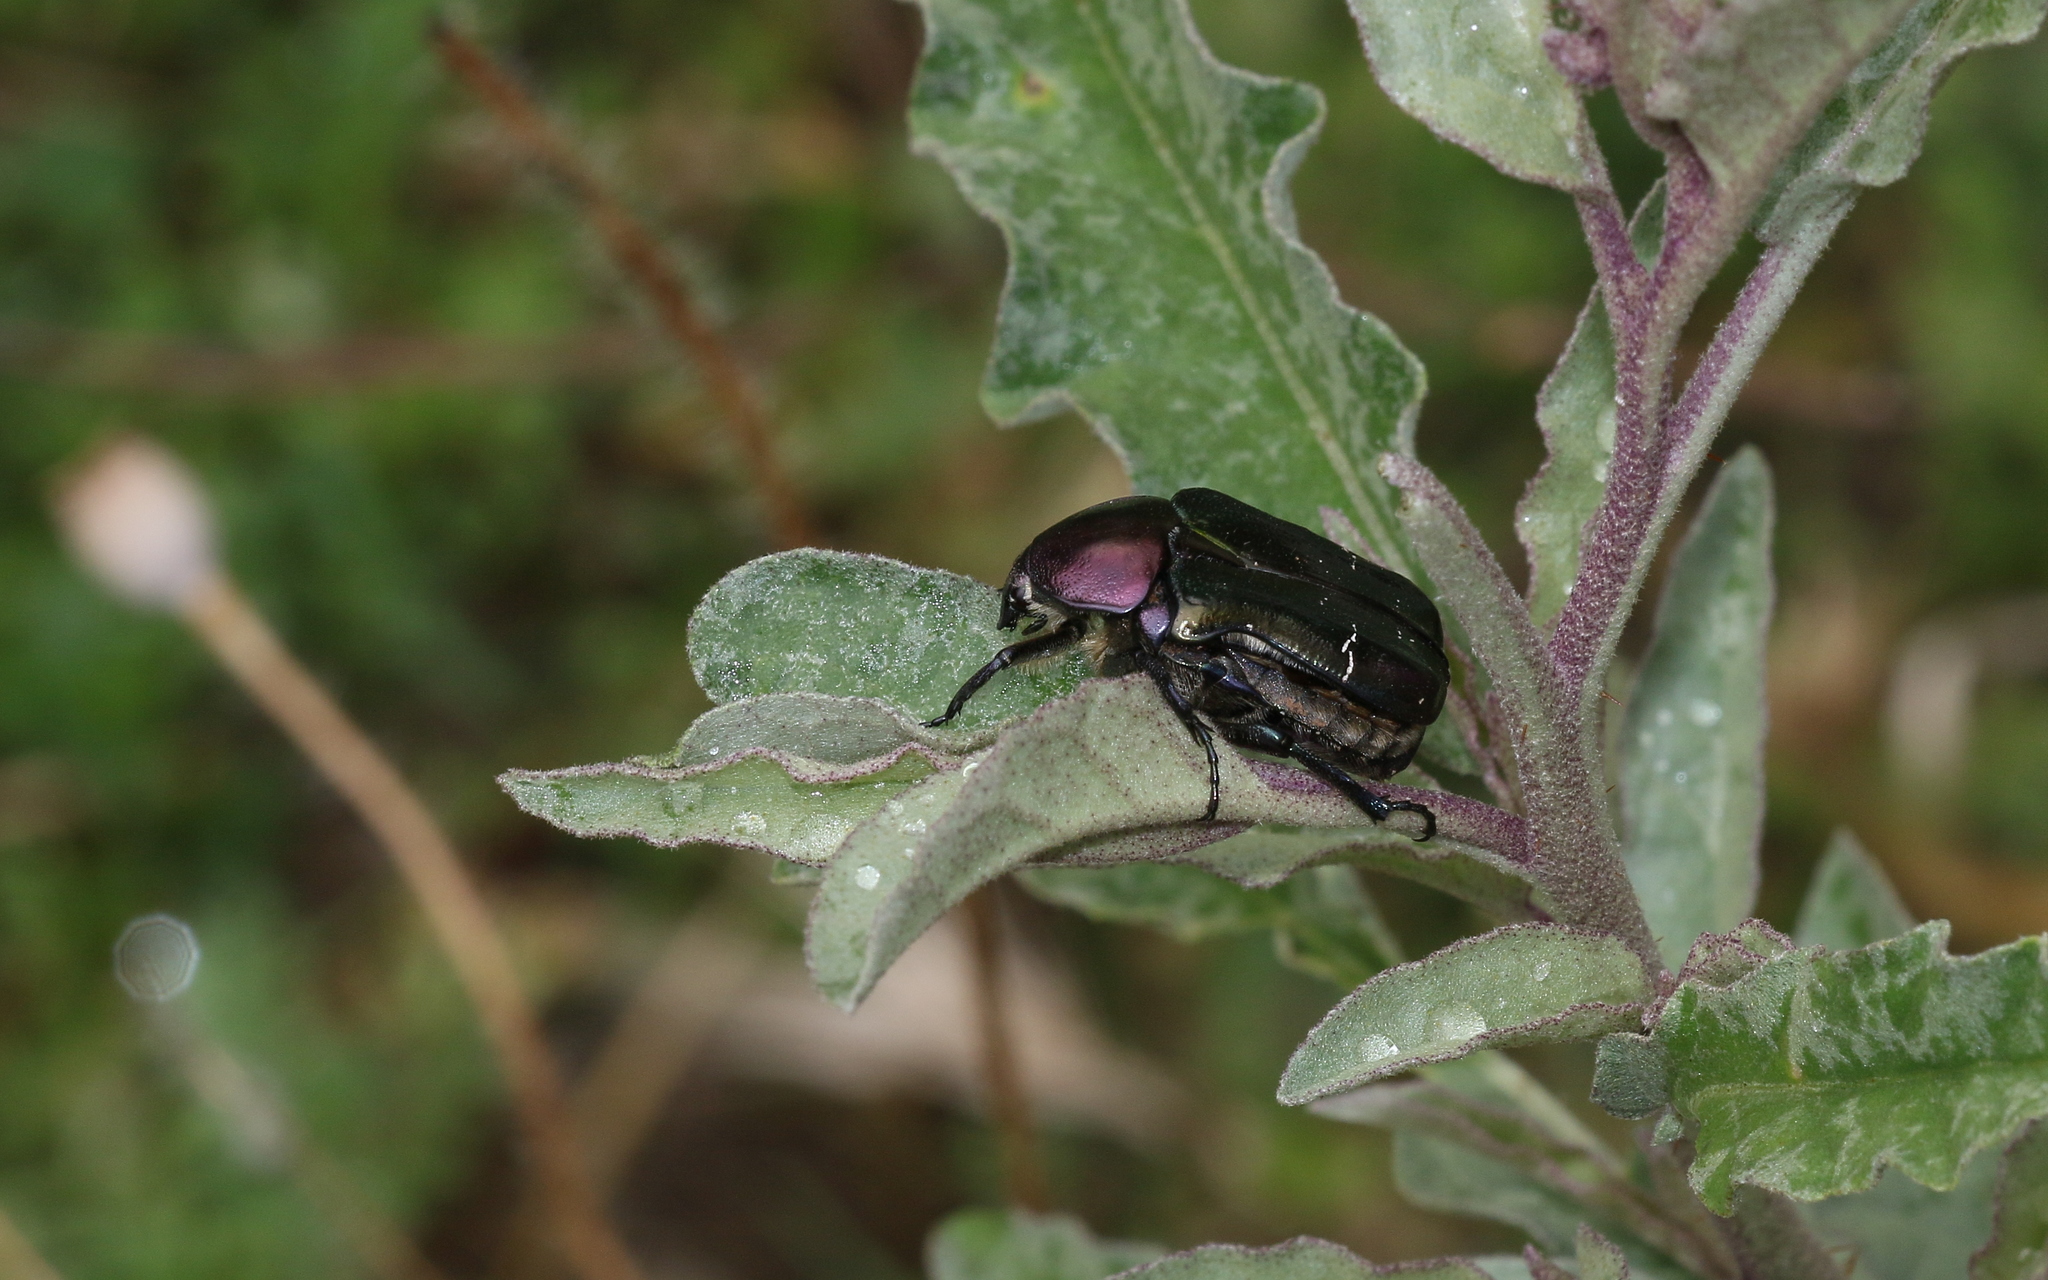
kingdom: Animalia
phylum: Arthropoda
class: Insecta
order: Coleoptera
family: Scarabaeidae
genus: Cetonia
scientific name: Cetonia aurata
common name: Rose chafer
